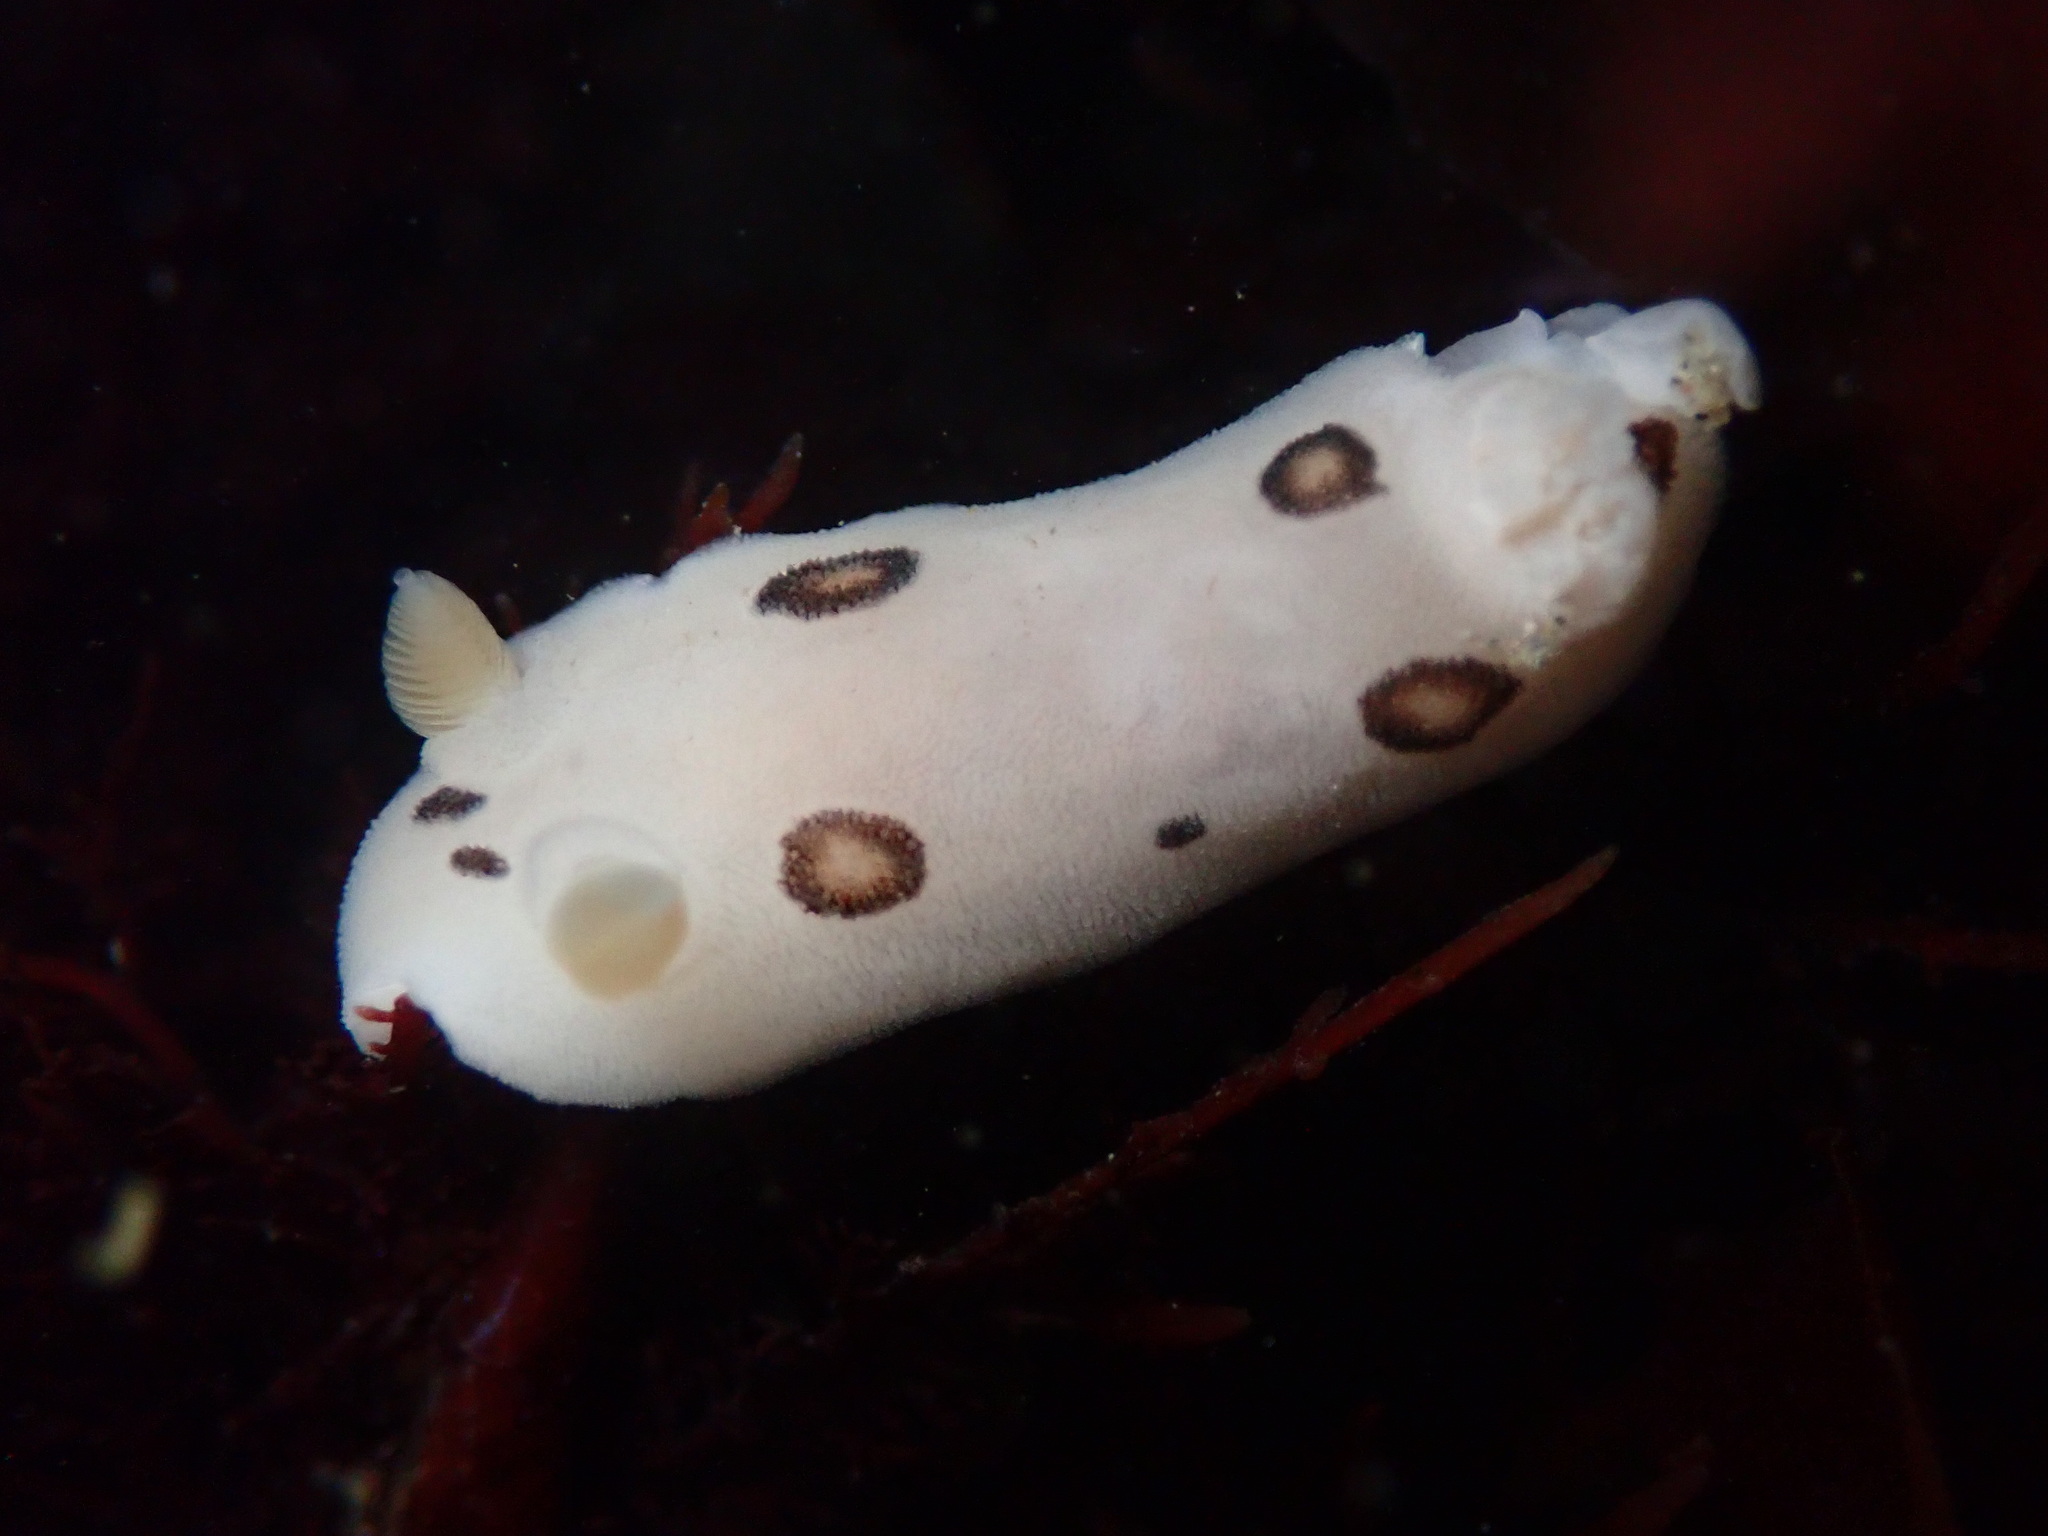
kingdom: Animalia
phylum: Mollusca
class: Gastropoda
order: Nudibranchia
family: Discodorididae
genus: Diaulula
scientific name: Diaulula sandiegensis
